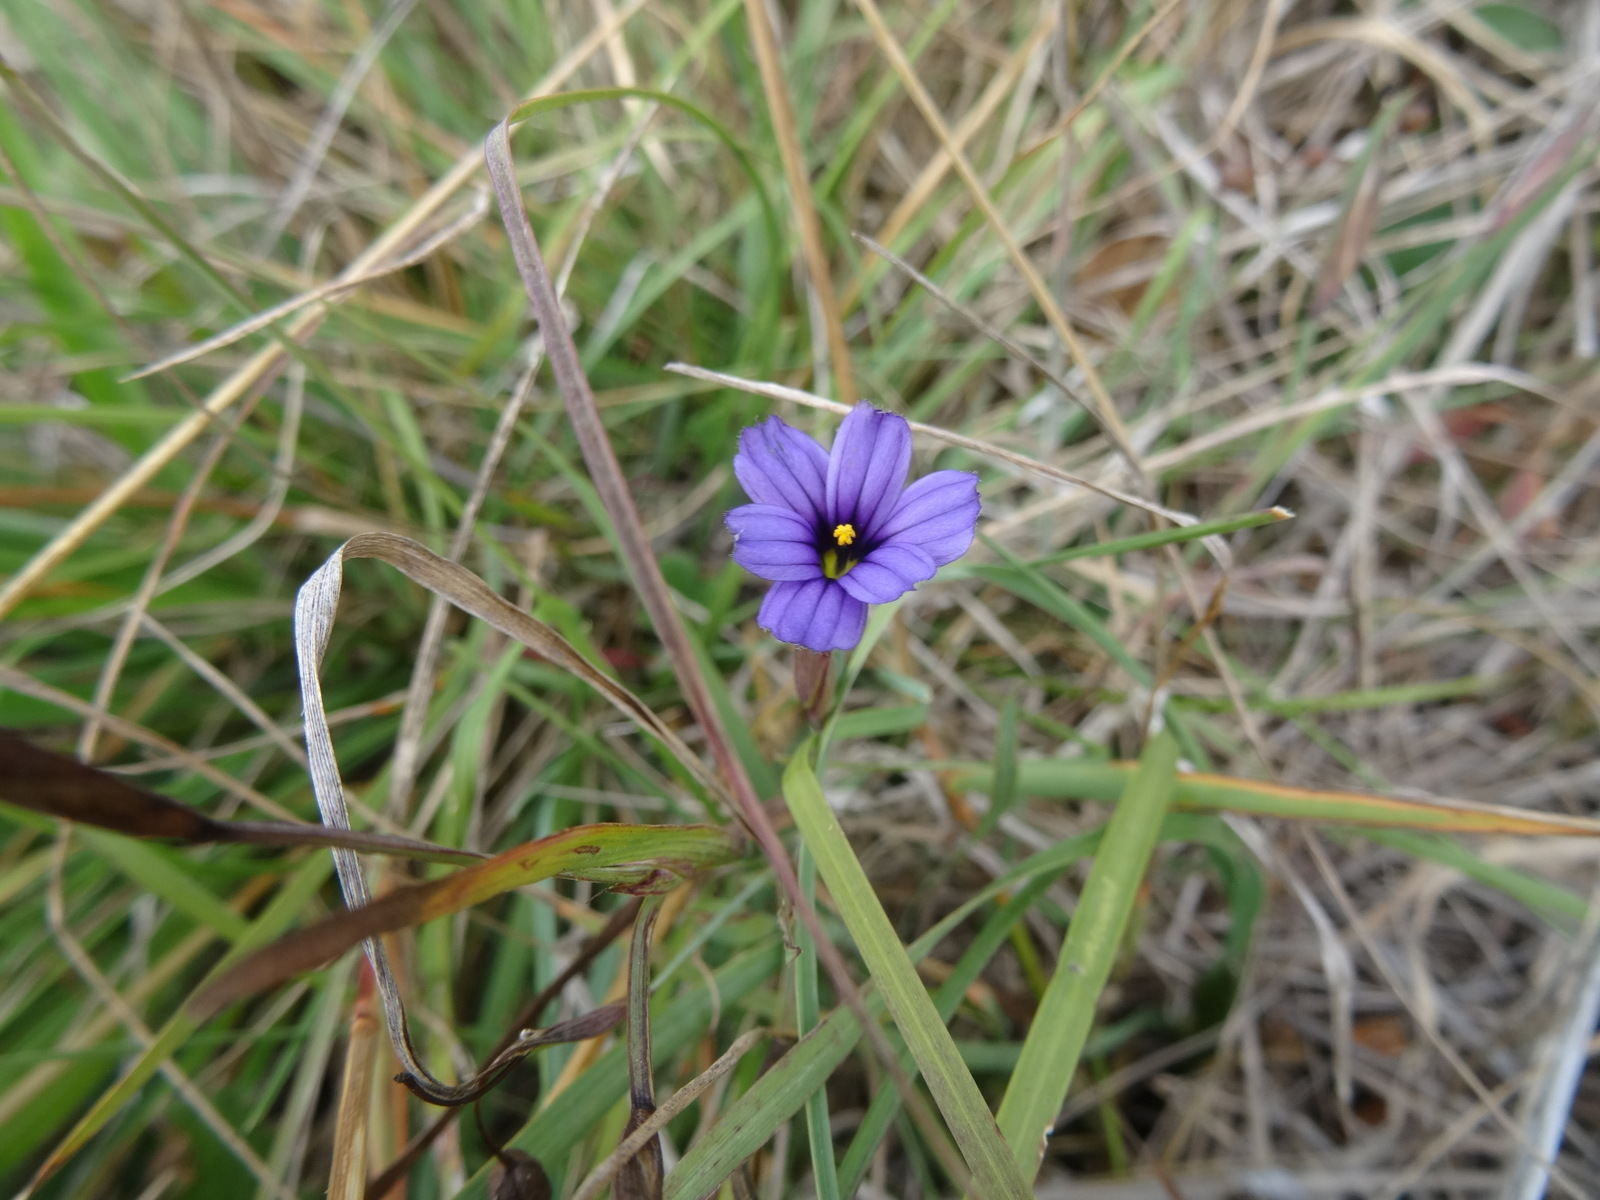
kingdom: Plantae
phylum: Tracheophyta
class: Liliopsida
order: Asparagales
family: Iridaceae
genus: Sisyrinchium
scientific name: Sisyrinchium bellum
